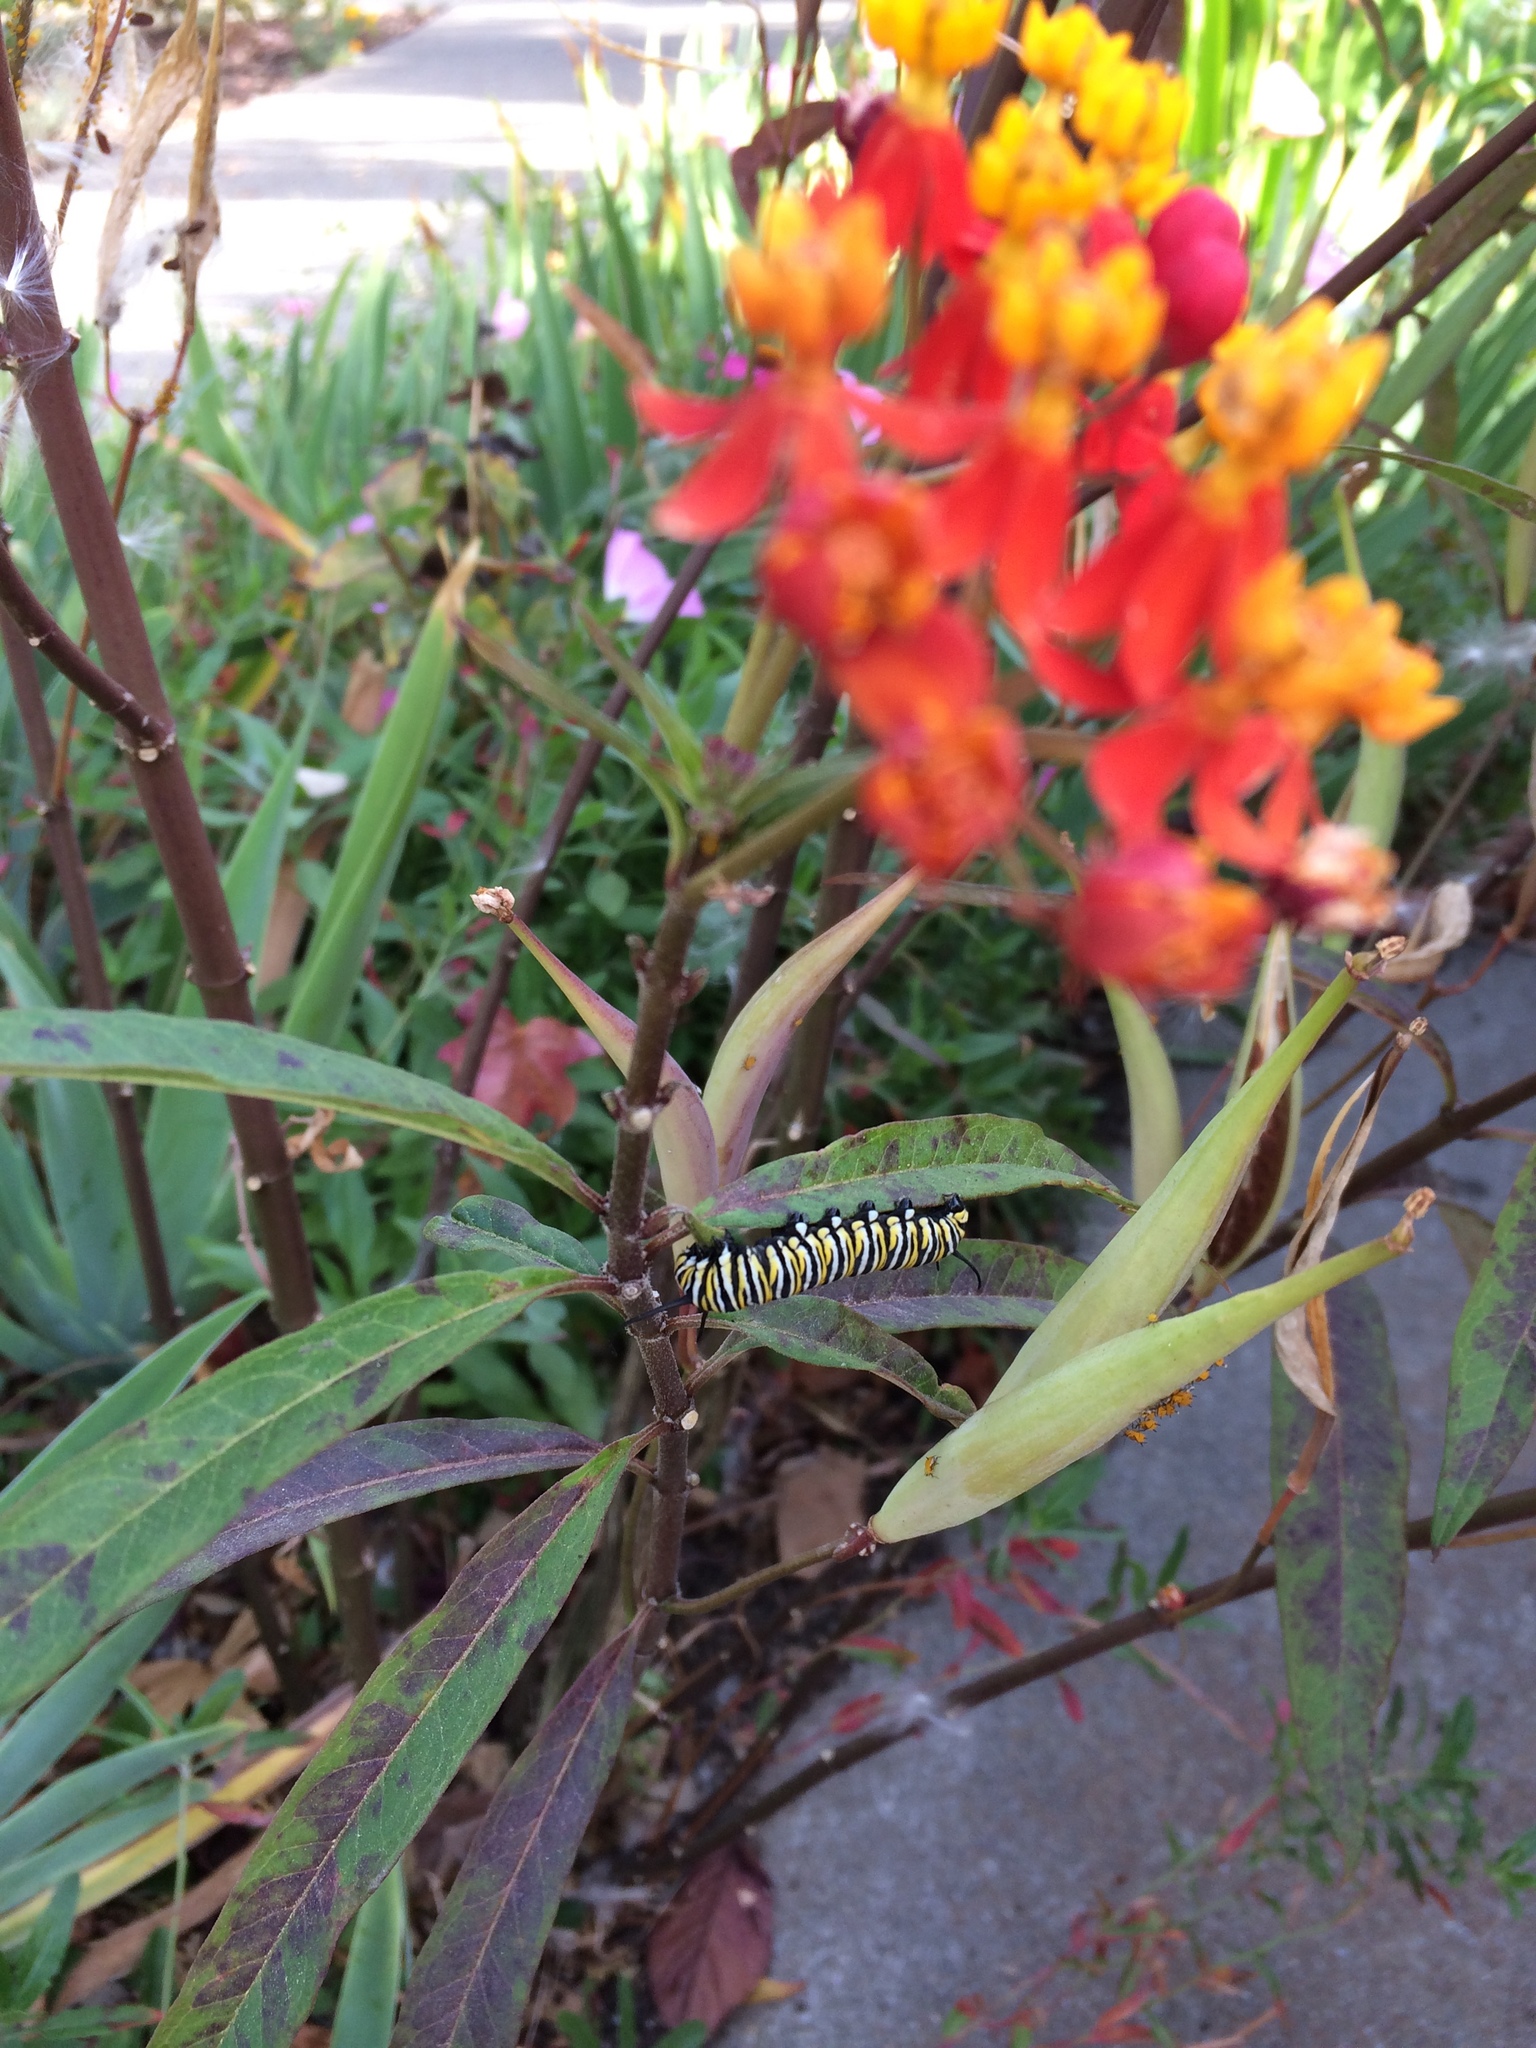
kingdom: Animalia
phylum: Arthropoda
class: Insecta
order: Lepidoptera
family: Nymphalidae
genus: Danaus
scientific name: Danaus plexippus
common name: Monarch
